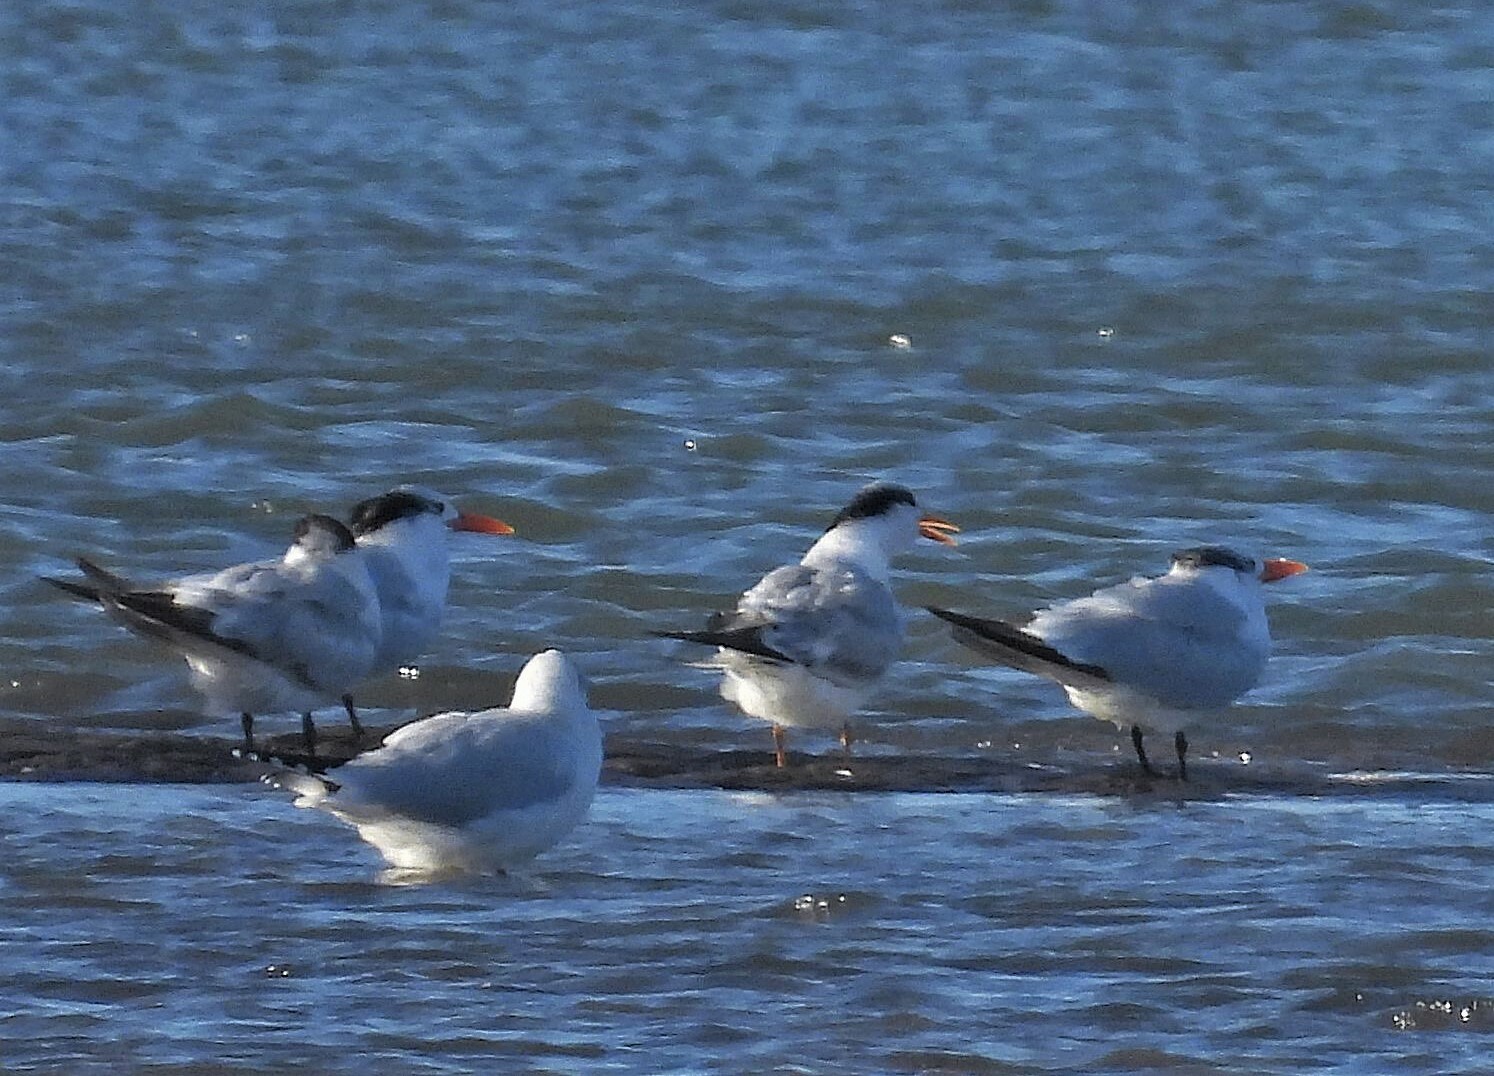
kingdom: Animalia
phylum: Chordata
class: Aves
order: Charadriiformes
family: Laridae
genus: Thalasseus
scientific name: Thalasseus maximus
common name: Royal tern
